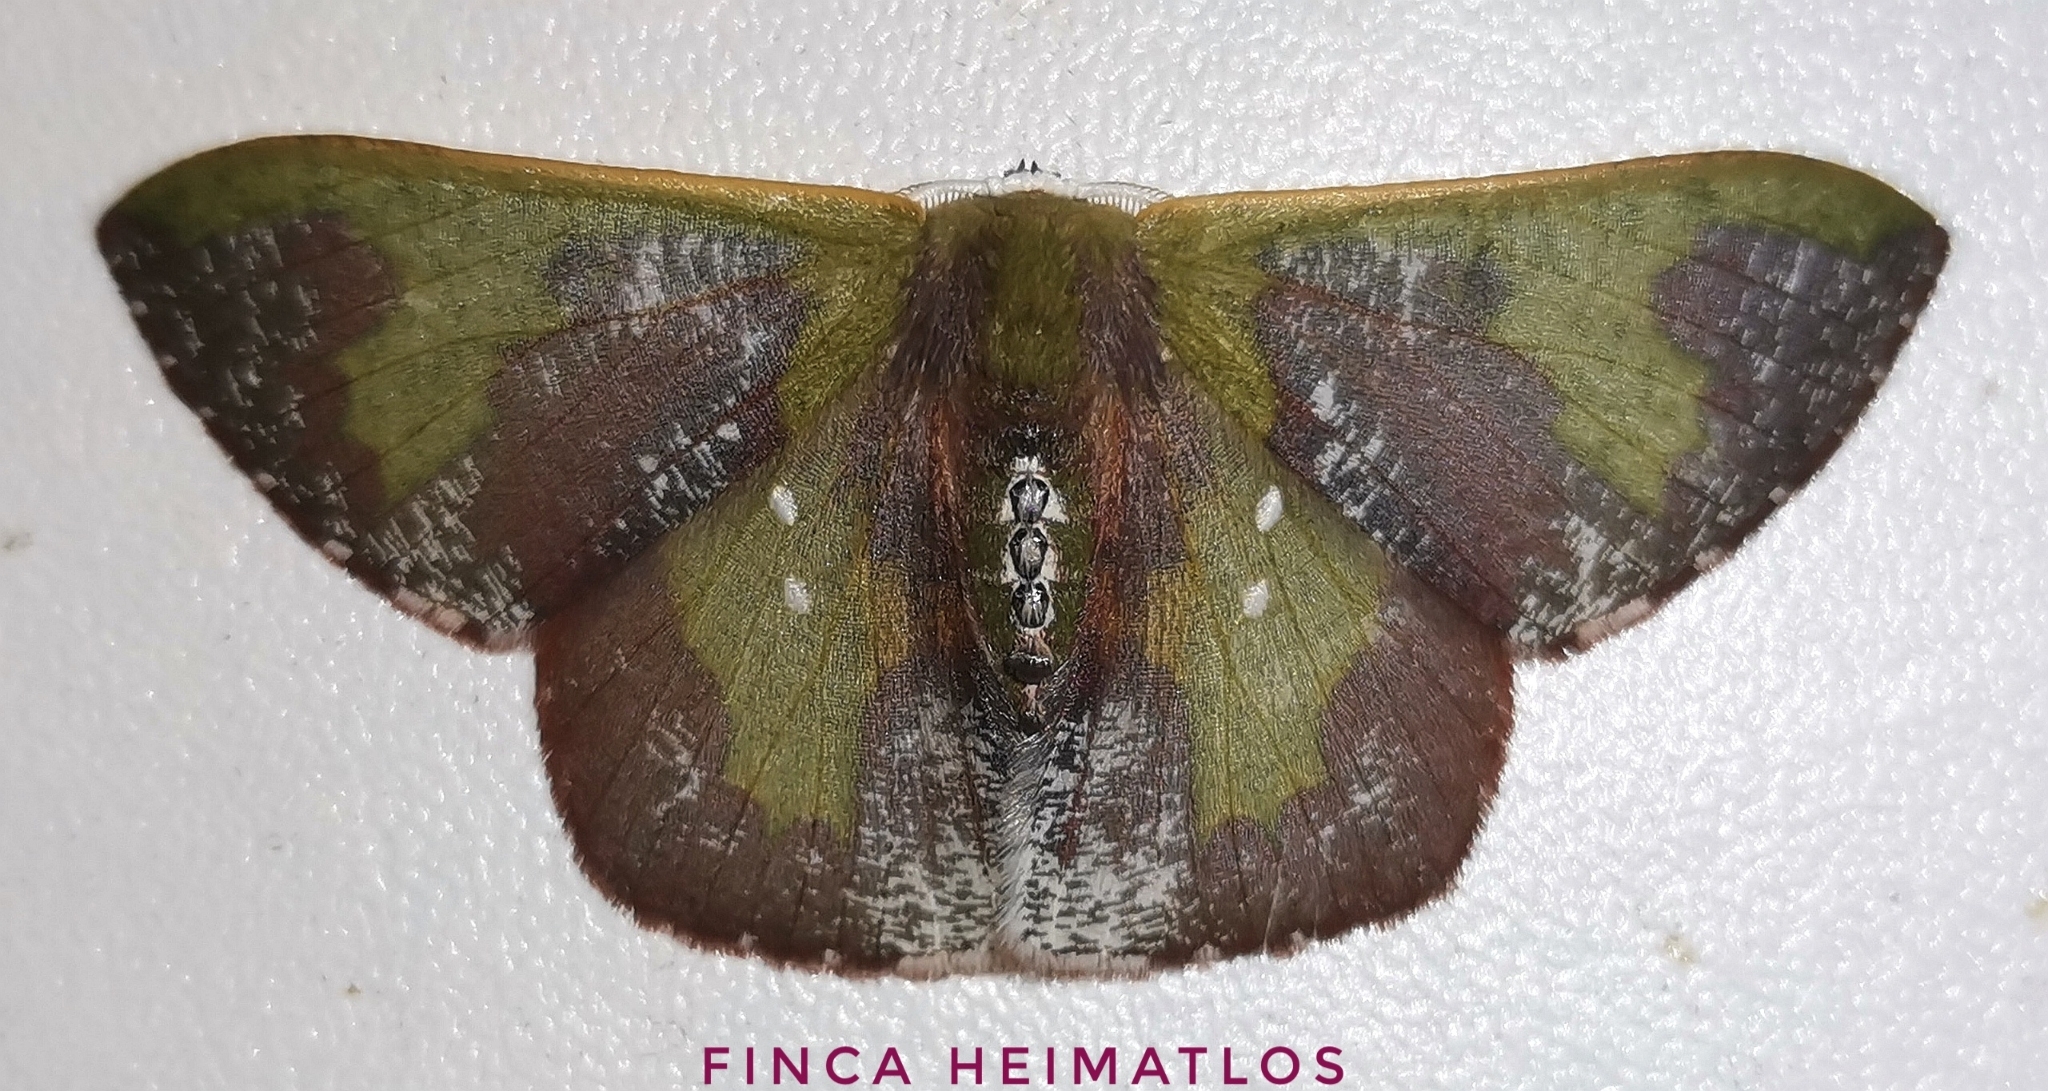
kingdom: Animalia
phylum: Arthropoda
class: Insecta
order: Lepidoptera
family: Geometridae
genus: Oospila
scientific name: Oospila lilacina
